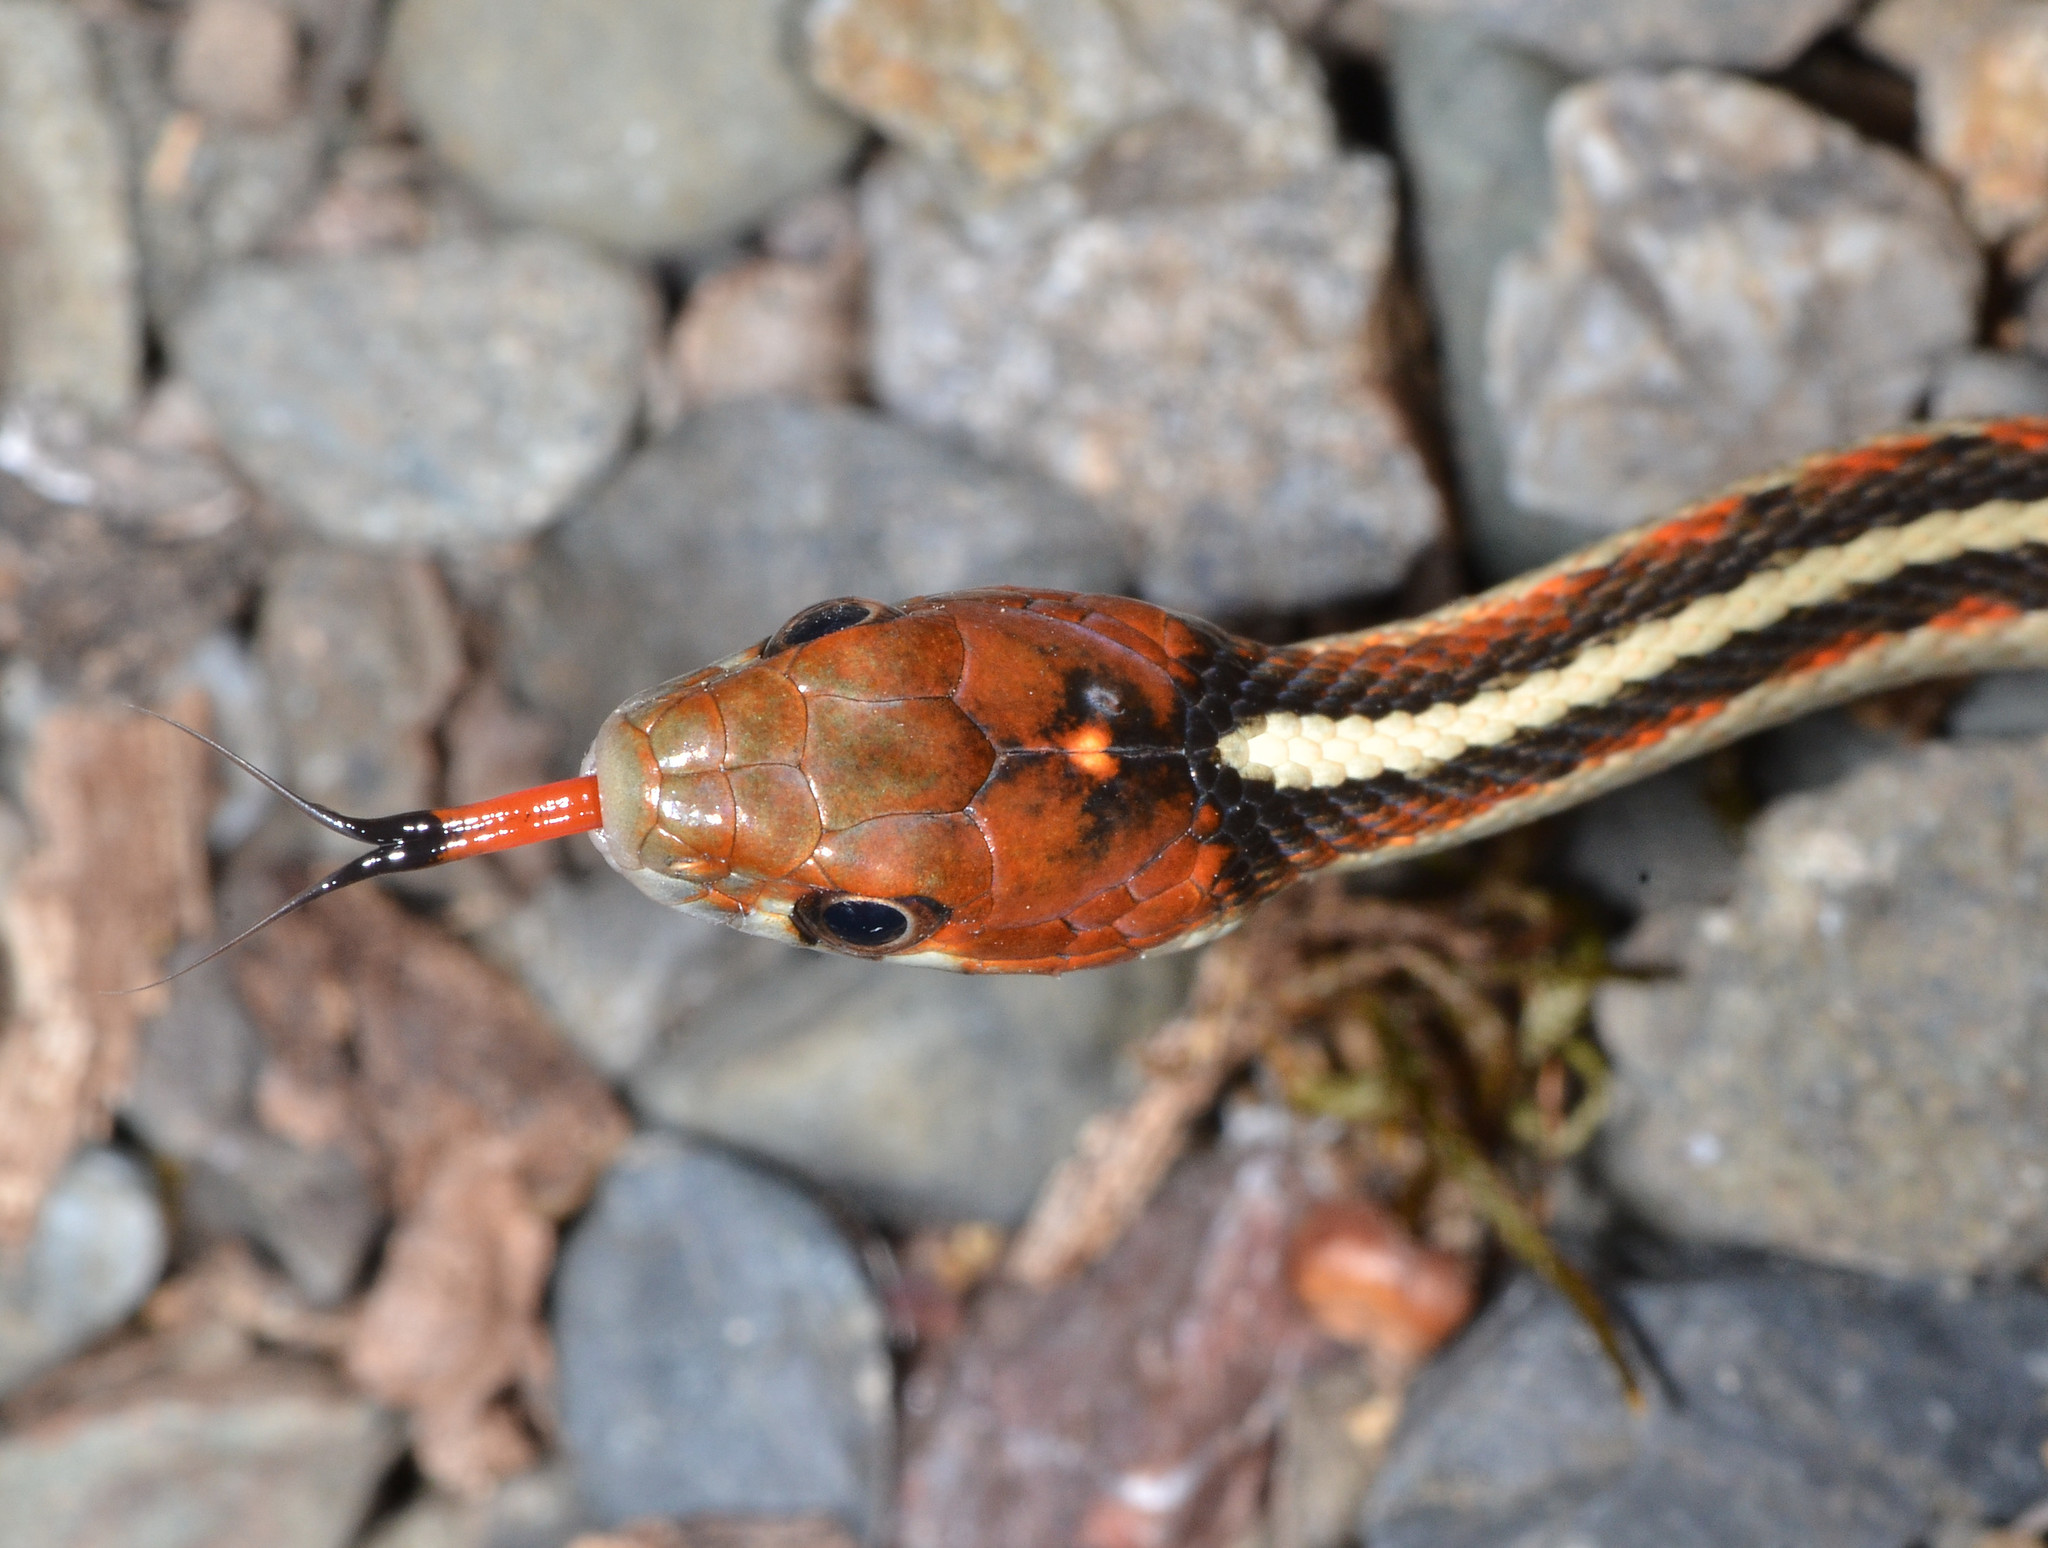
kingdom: Animalia
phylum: Chordata
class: Squamata
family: Colubridae
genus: Thamnophis
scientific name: Thamnophis sirtalis
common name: Common garter snake
